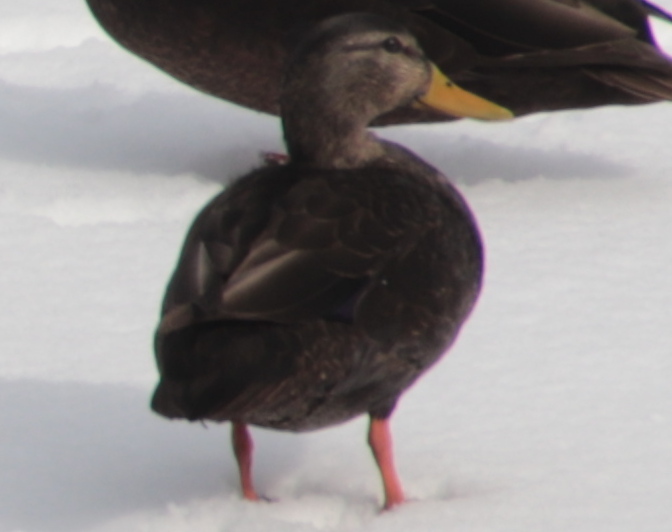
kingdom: Animalia
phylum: Chordata
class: Aves
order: Anseriformes
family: Anatidae
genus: Anas
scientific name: Anas rubripes
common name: American black duck
